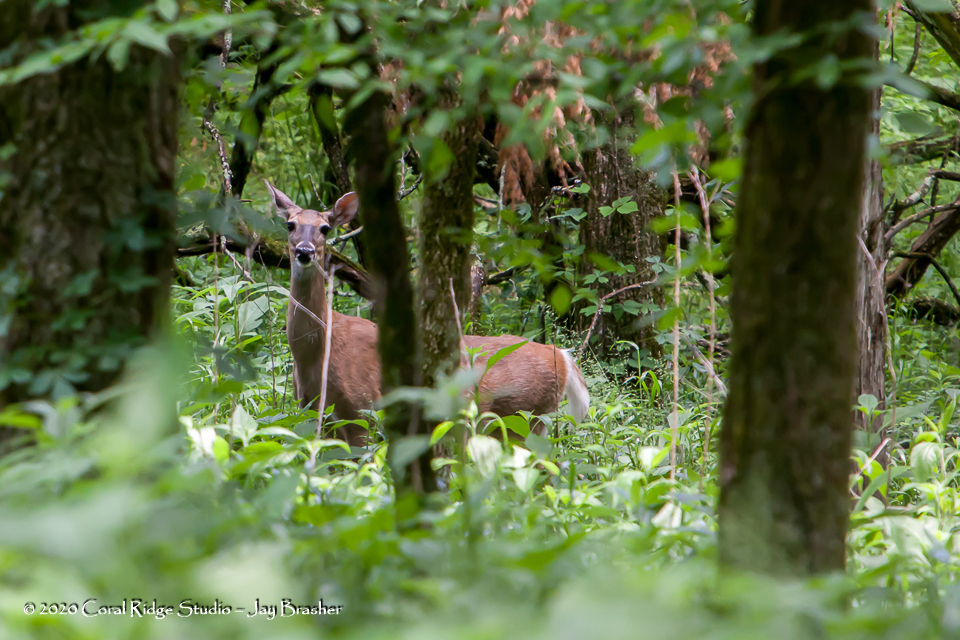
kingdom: Animalia
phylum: Chordata
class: Mammalia
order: Artiodactyla
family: Cervidae
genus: Odocoileus
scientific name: Odocoileus virginianus
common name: White-tailed deer
